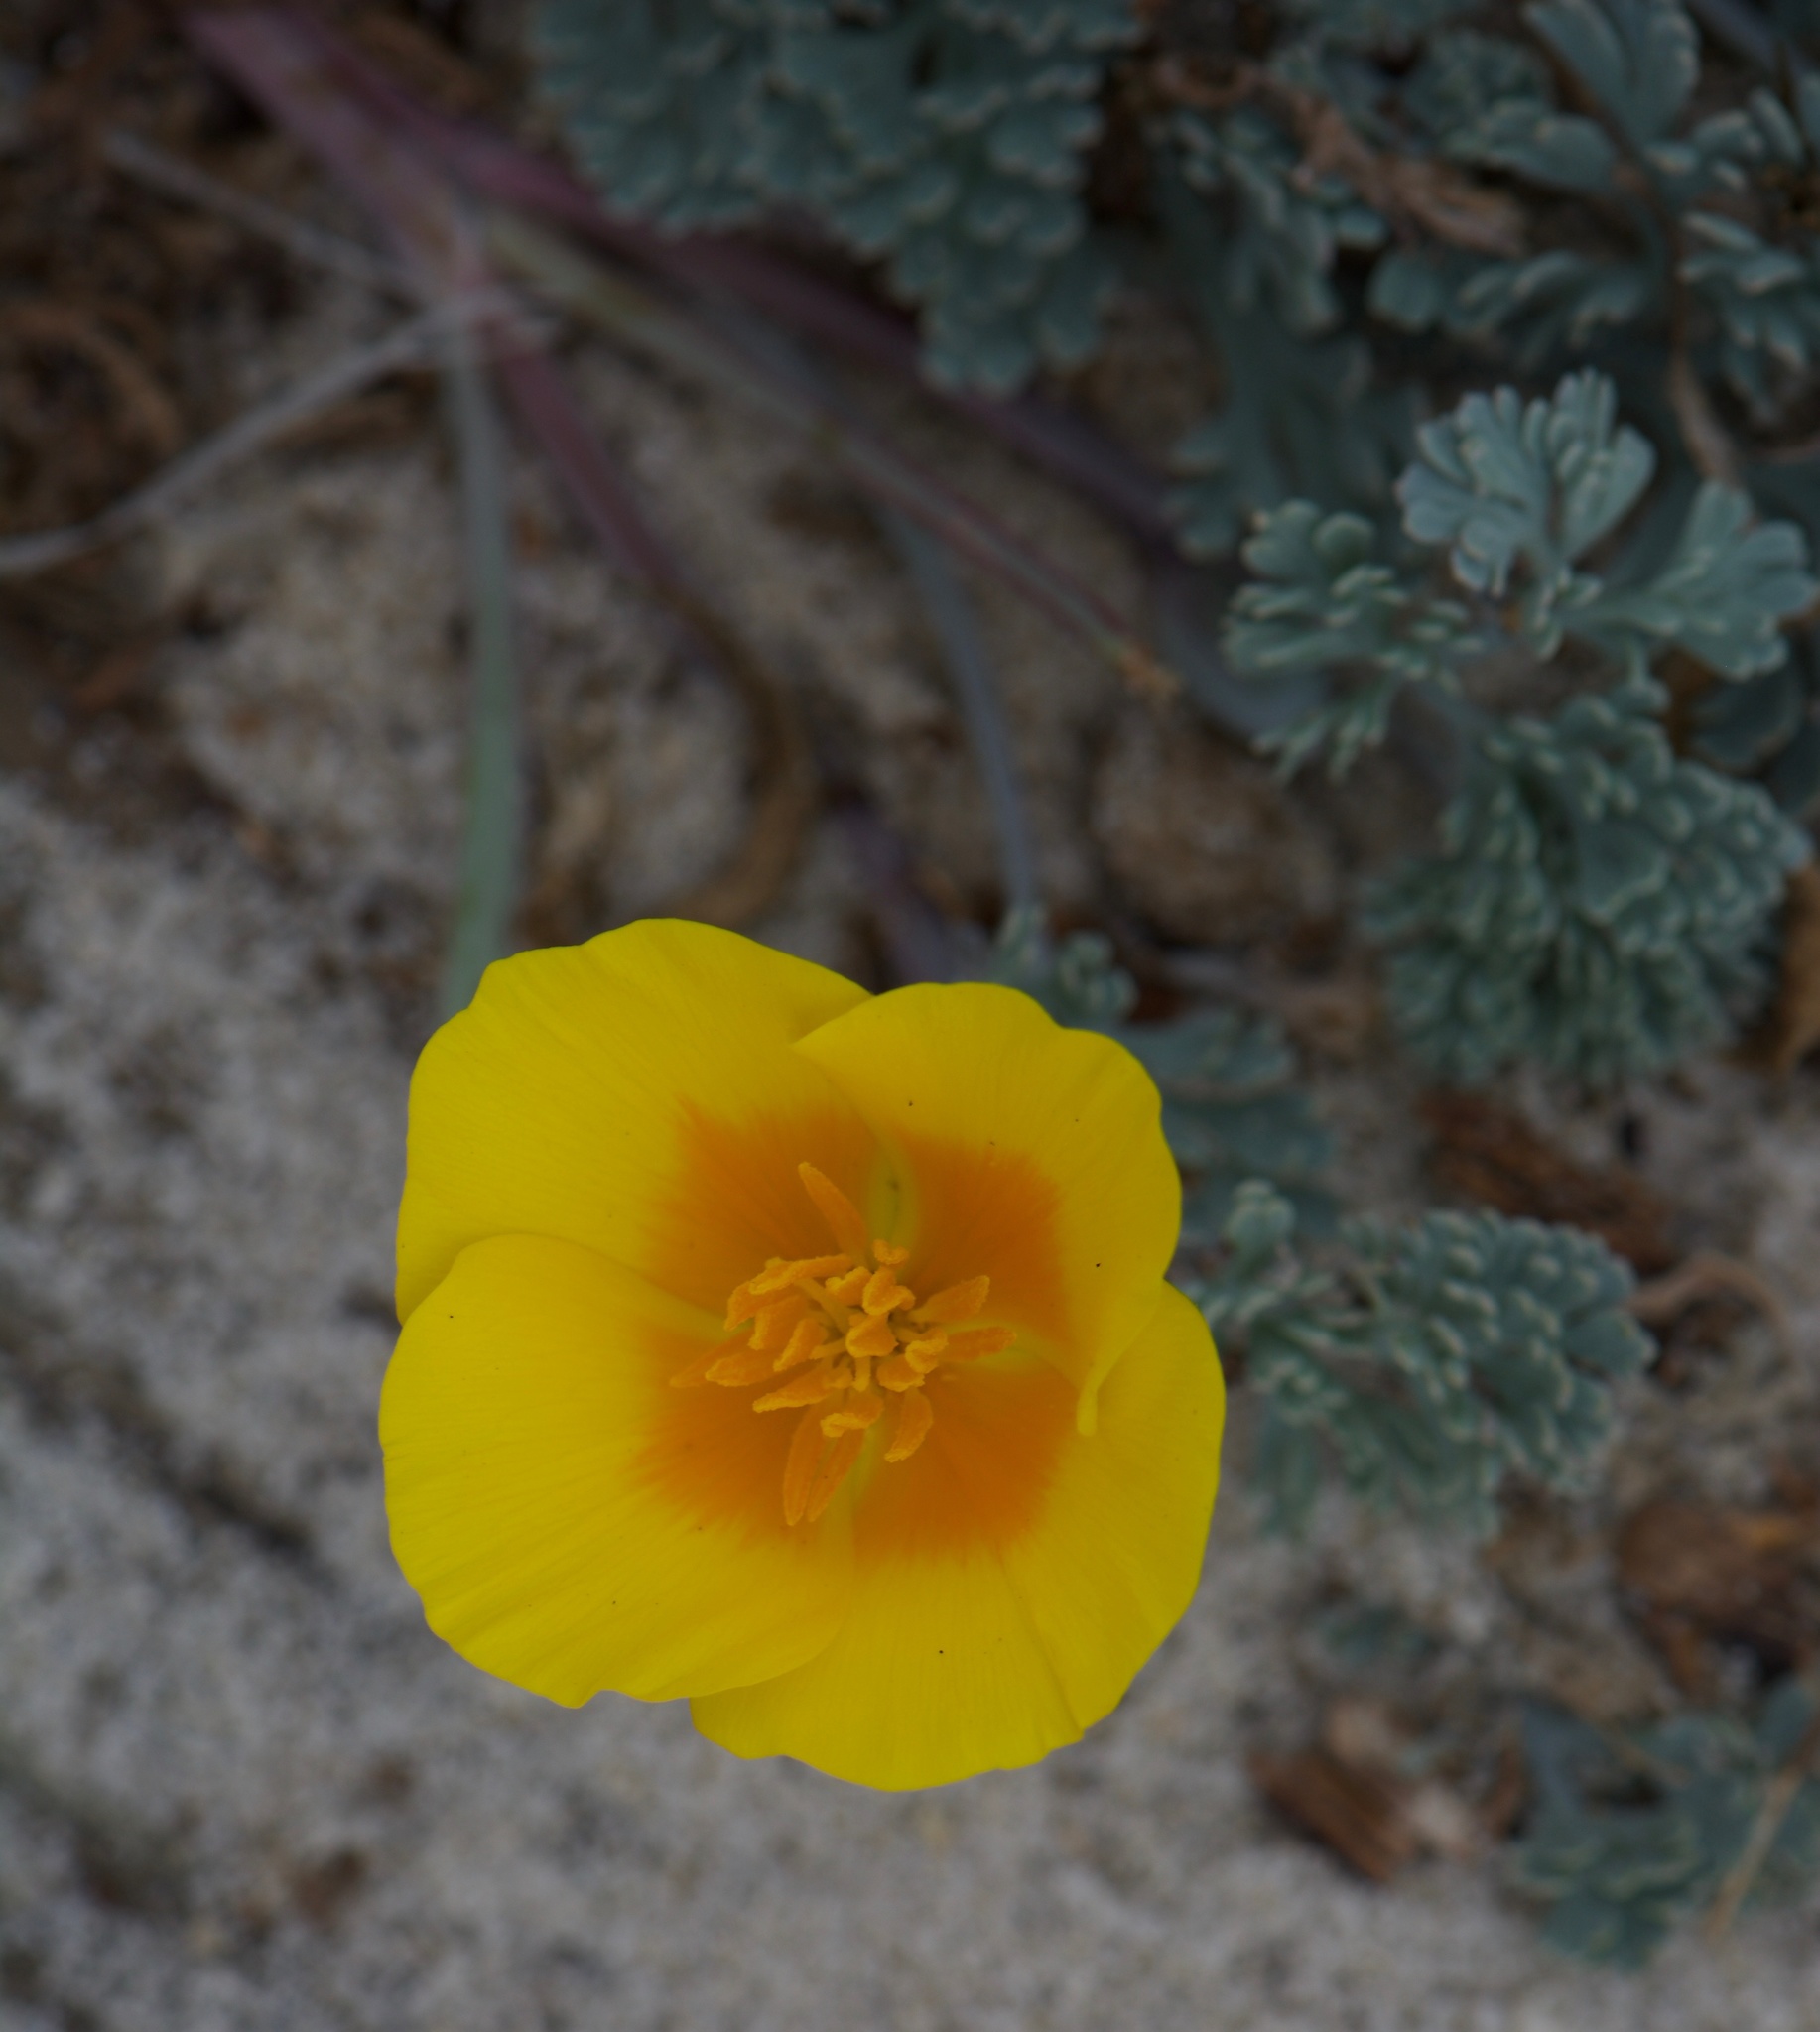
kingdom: Plantae
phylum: Tracheophyta
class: Magnoliopsida
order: Ranunculales
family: Papaveraceae
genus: Eschscholzia
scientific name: Eschscholzia californica
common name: California poppy
